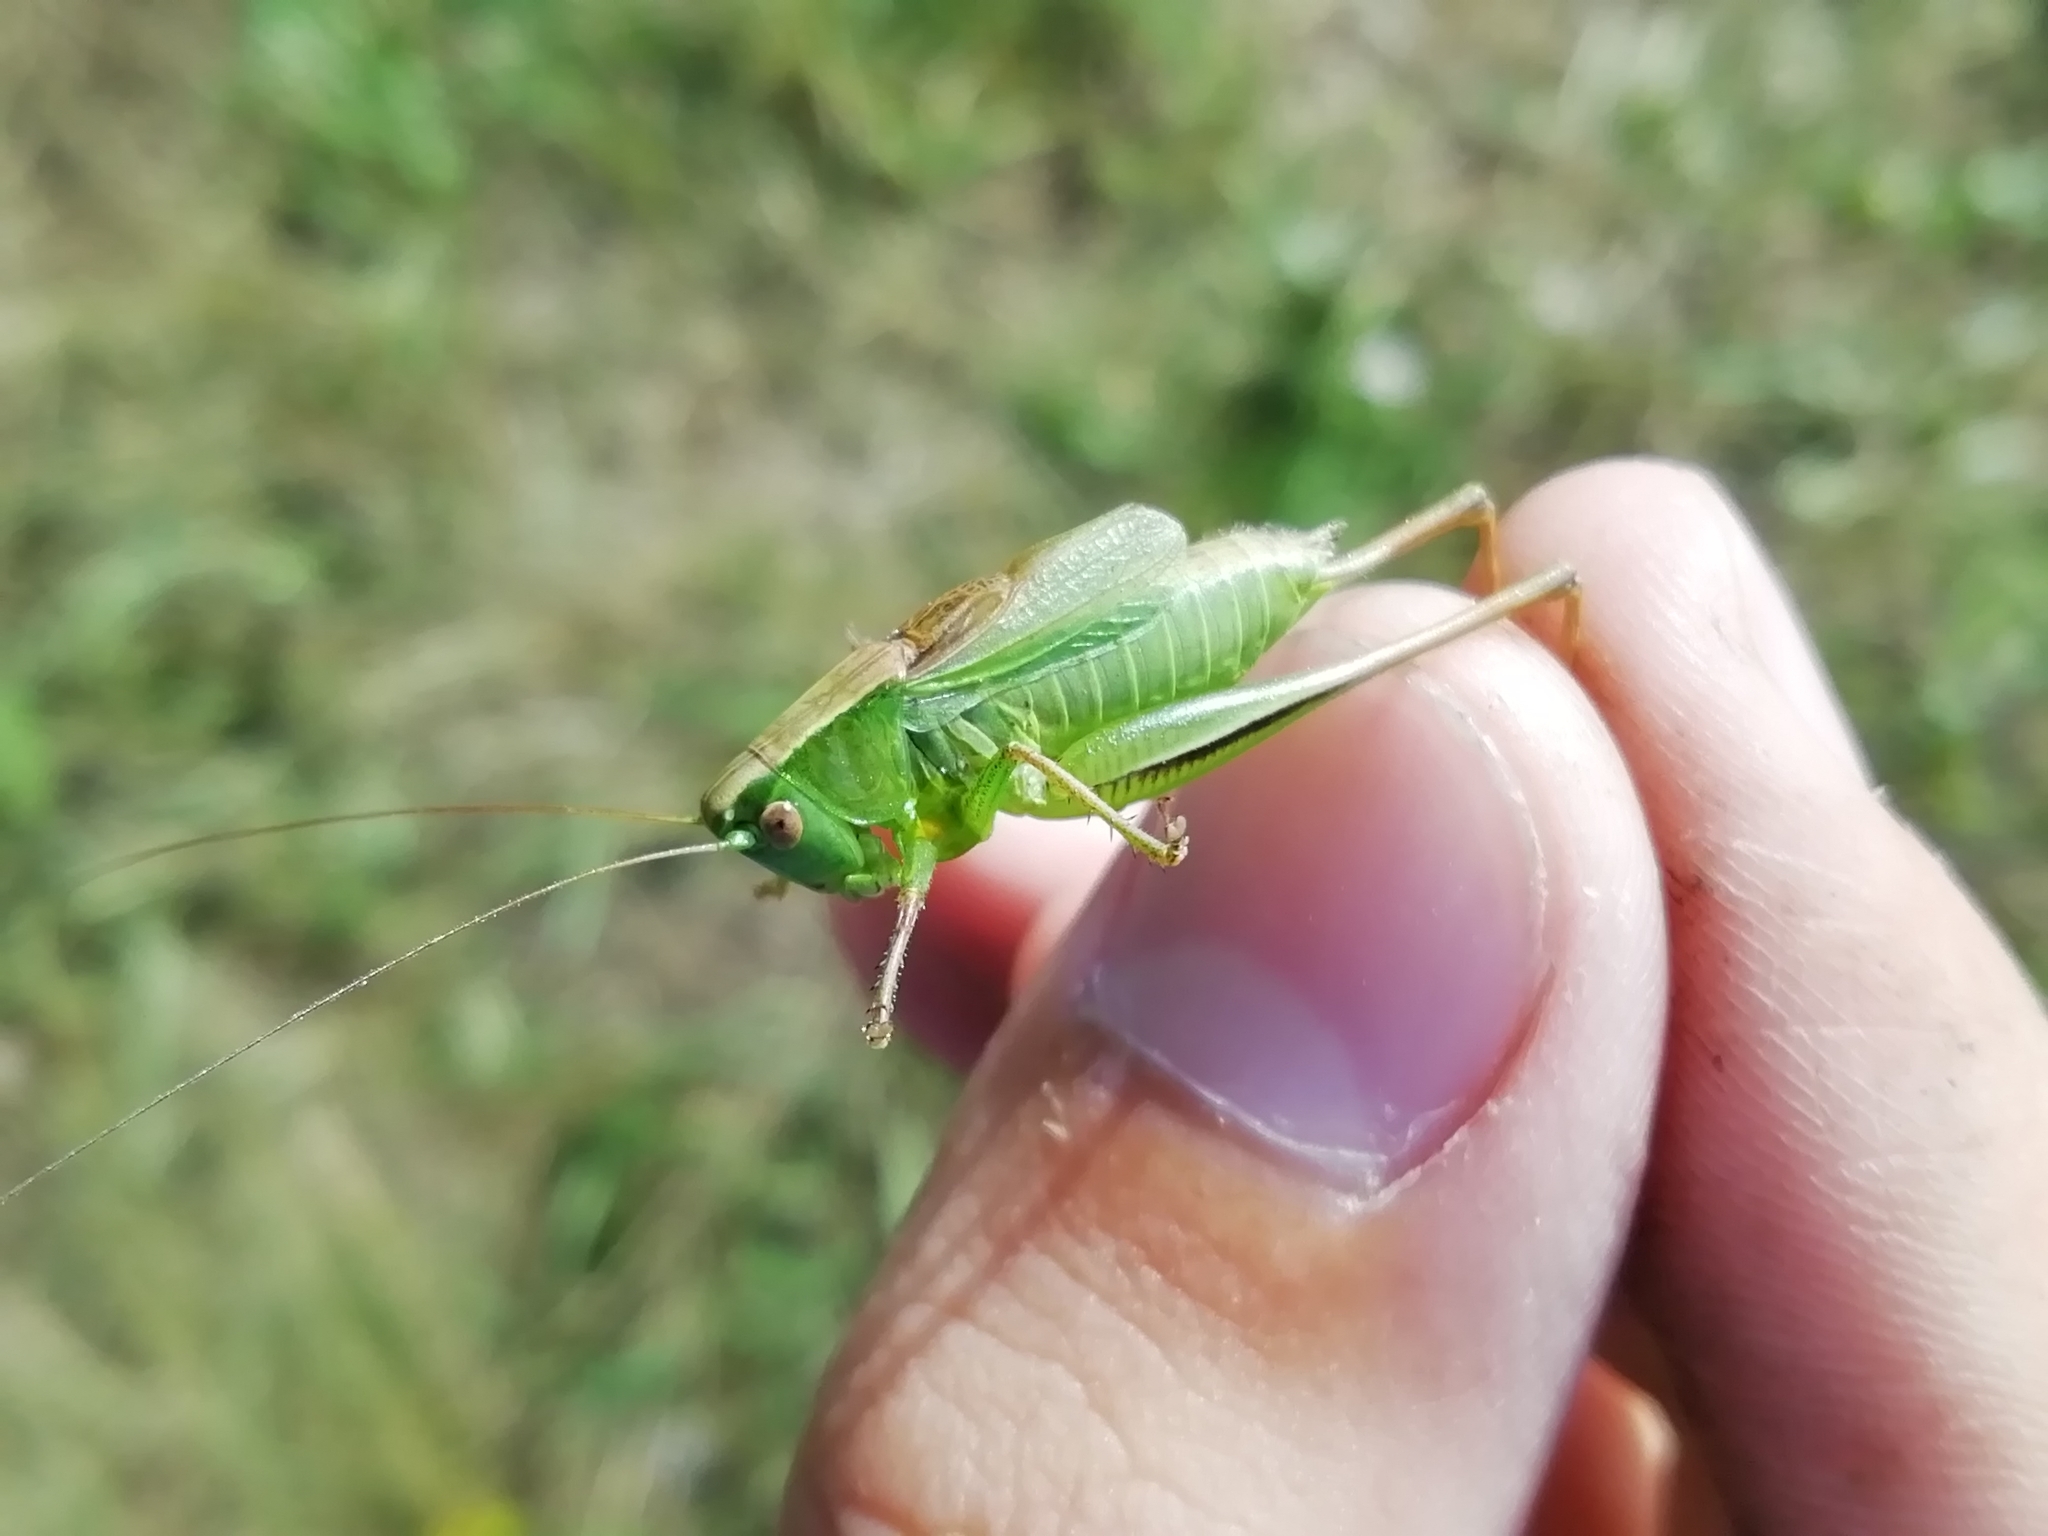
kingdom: Animalia
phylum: Arthropoda
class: Insecta
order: Orthoptera
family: Tettigoniidae
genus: Bicolorana
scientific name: Bicolorana bicolor
